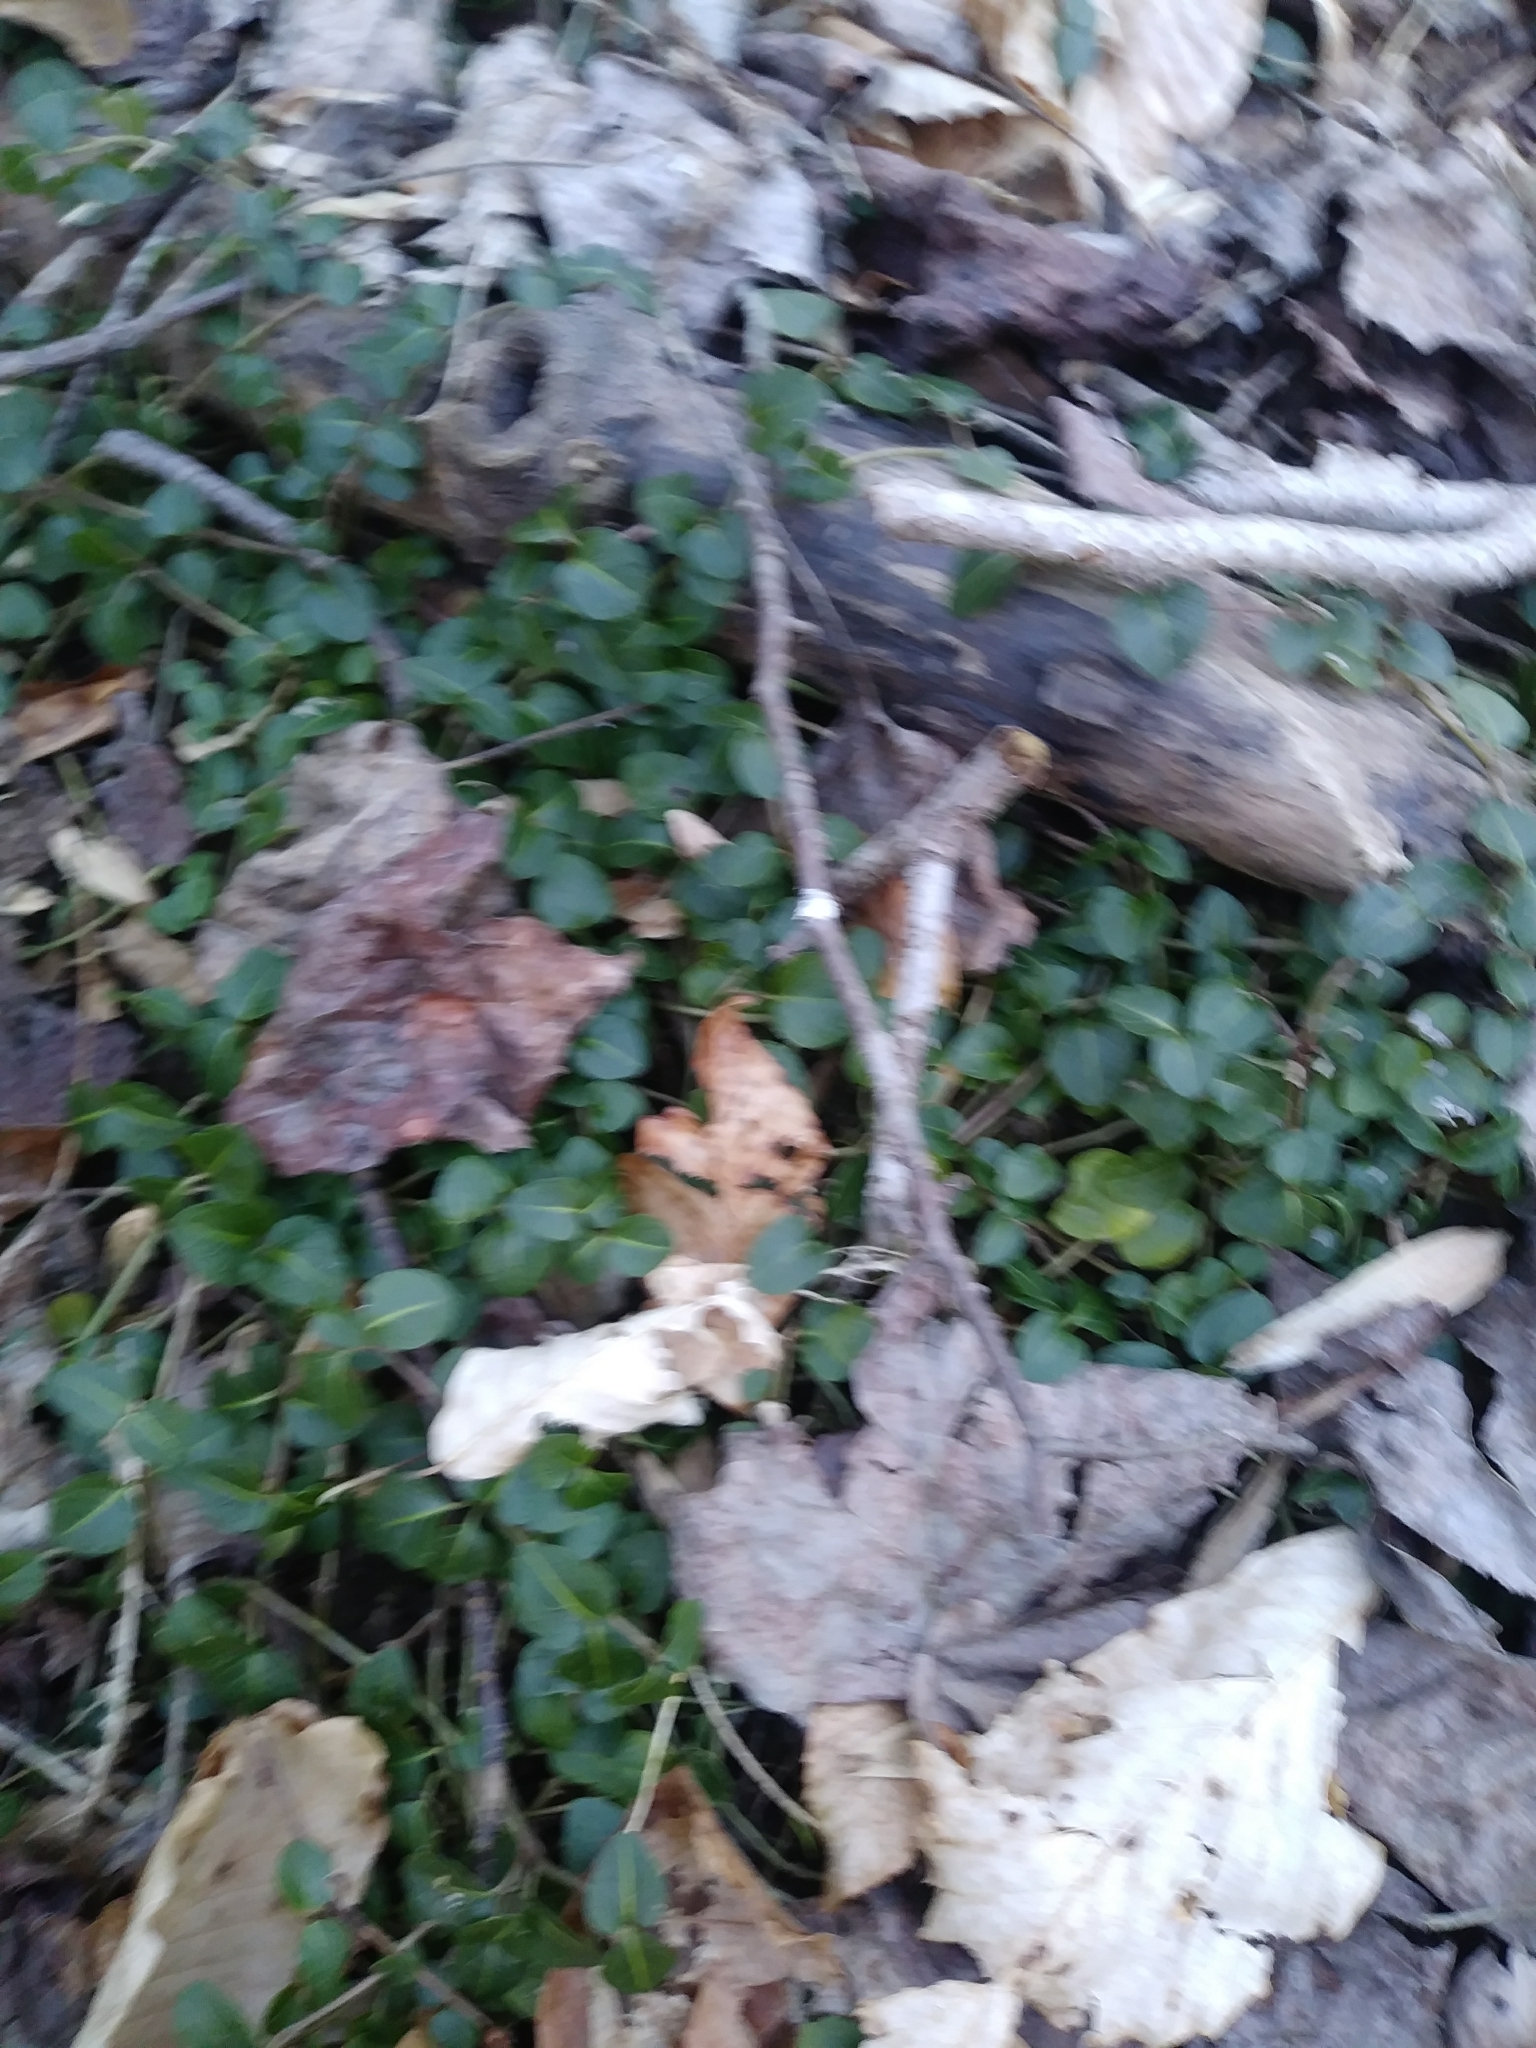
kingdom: Plantae
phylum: Tracheophyta
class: Magnoliopsida
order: Gentianales
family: Rubiaceae
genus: Mitchella
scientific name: Mitchella repens
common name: Partridge-berry
